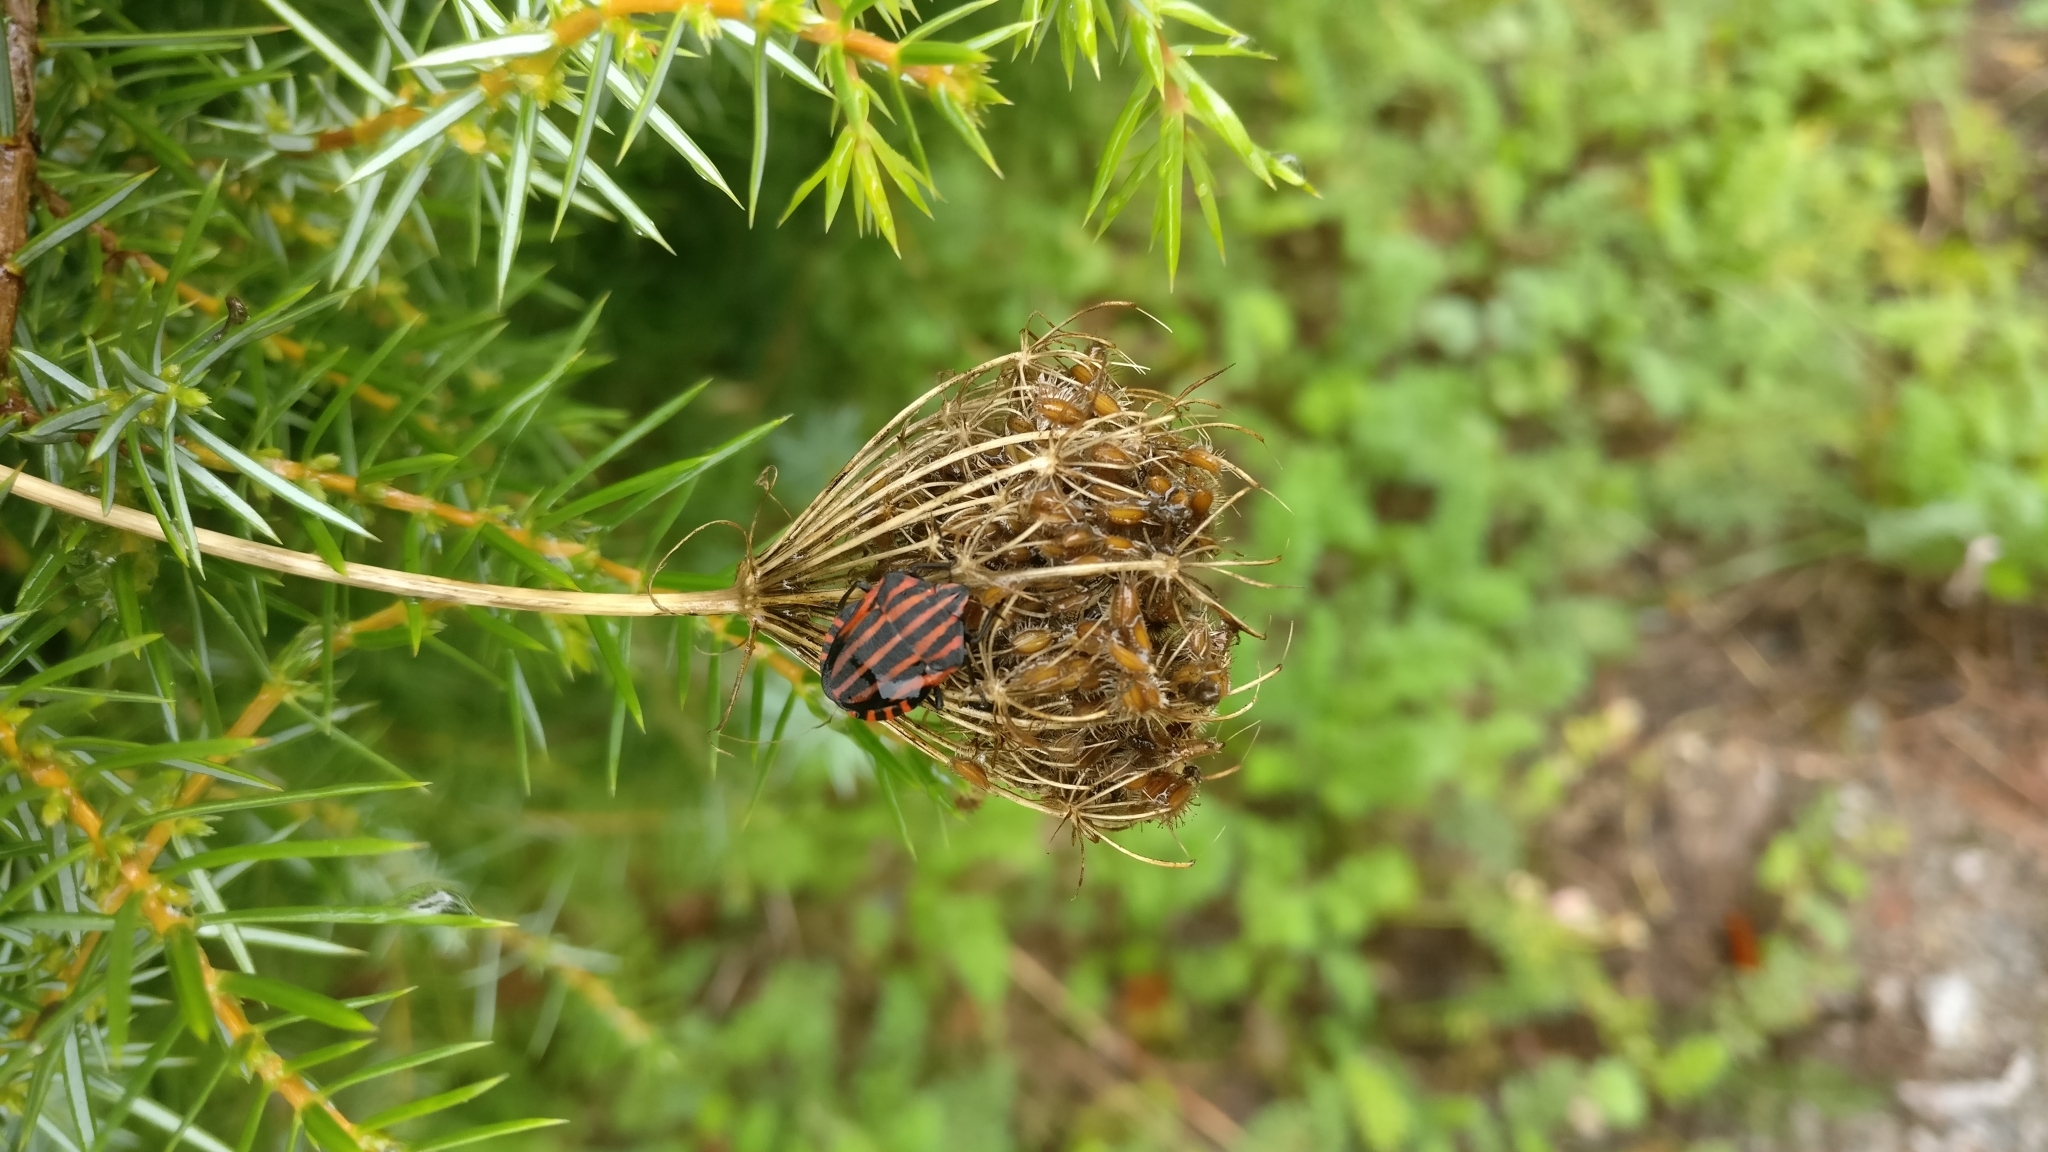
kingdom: Animalia
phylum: Arthropoda
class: Insecta
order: Hemiptera
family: Pentatomidae
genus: Graphosoma
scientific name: Graphosoma italicum
